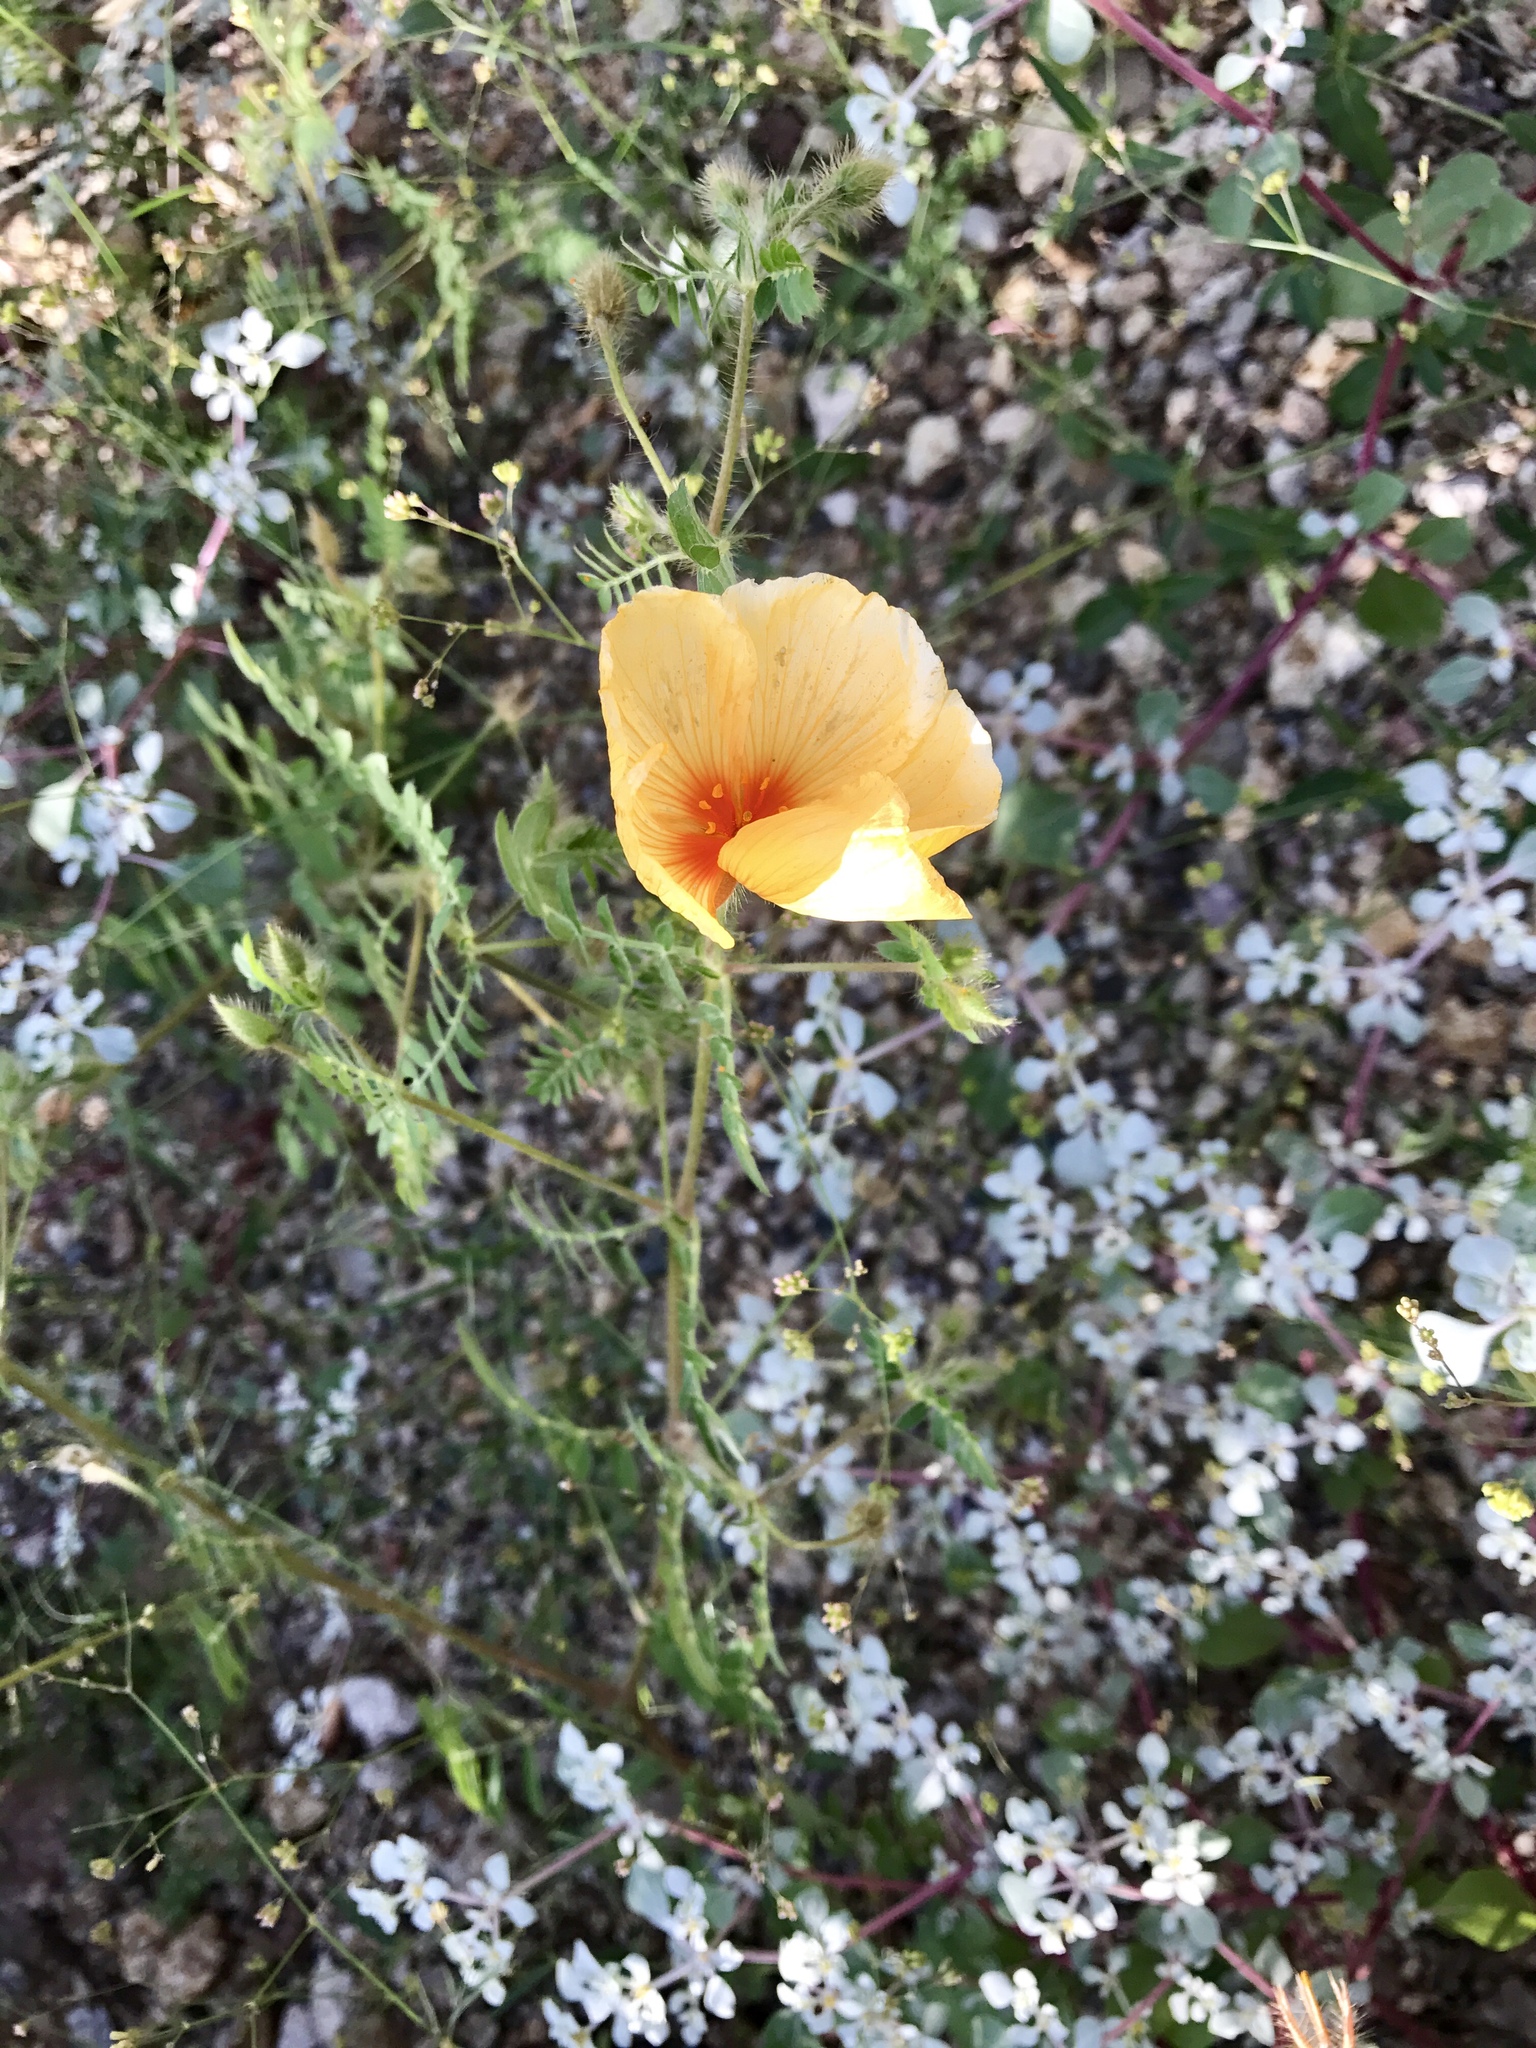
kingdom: Plantae
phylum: Tracheophyta
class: Magnoliopsida
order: Zygophyllales
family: Zygophyllaceae
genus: Kallstroemia
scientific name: Kallstroemia grandiflora
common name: Arizona-poppy
